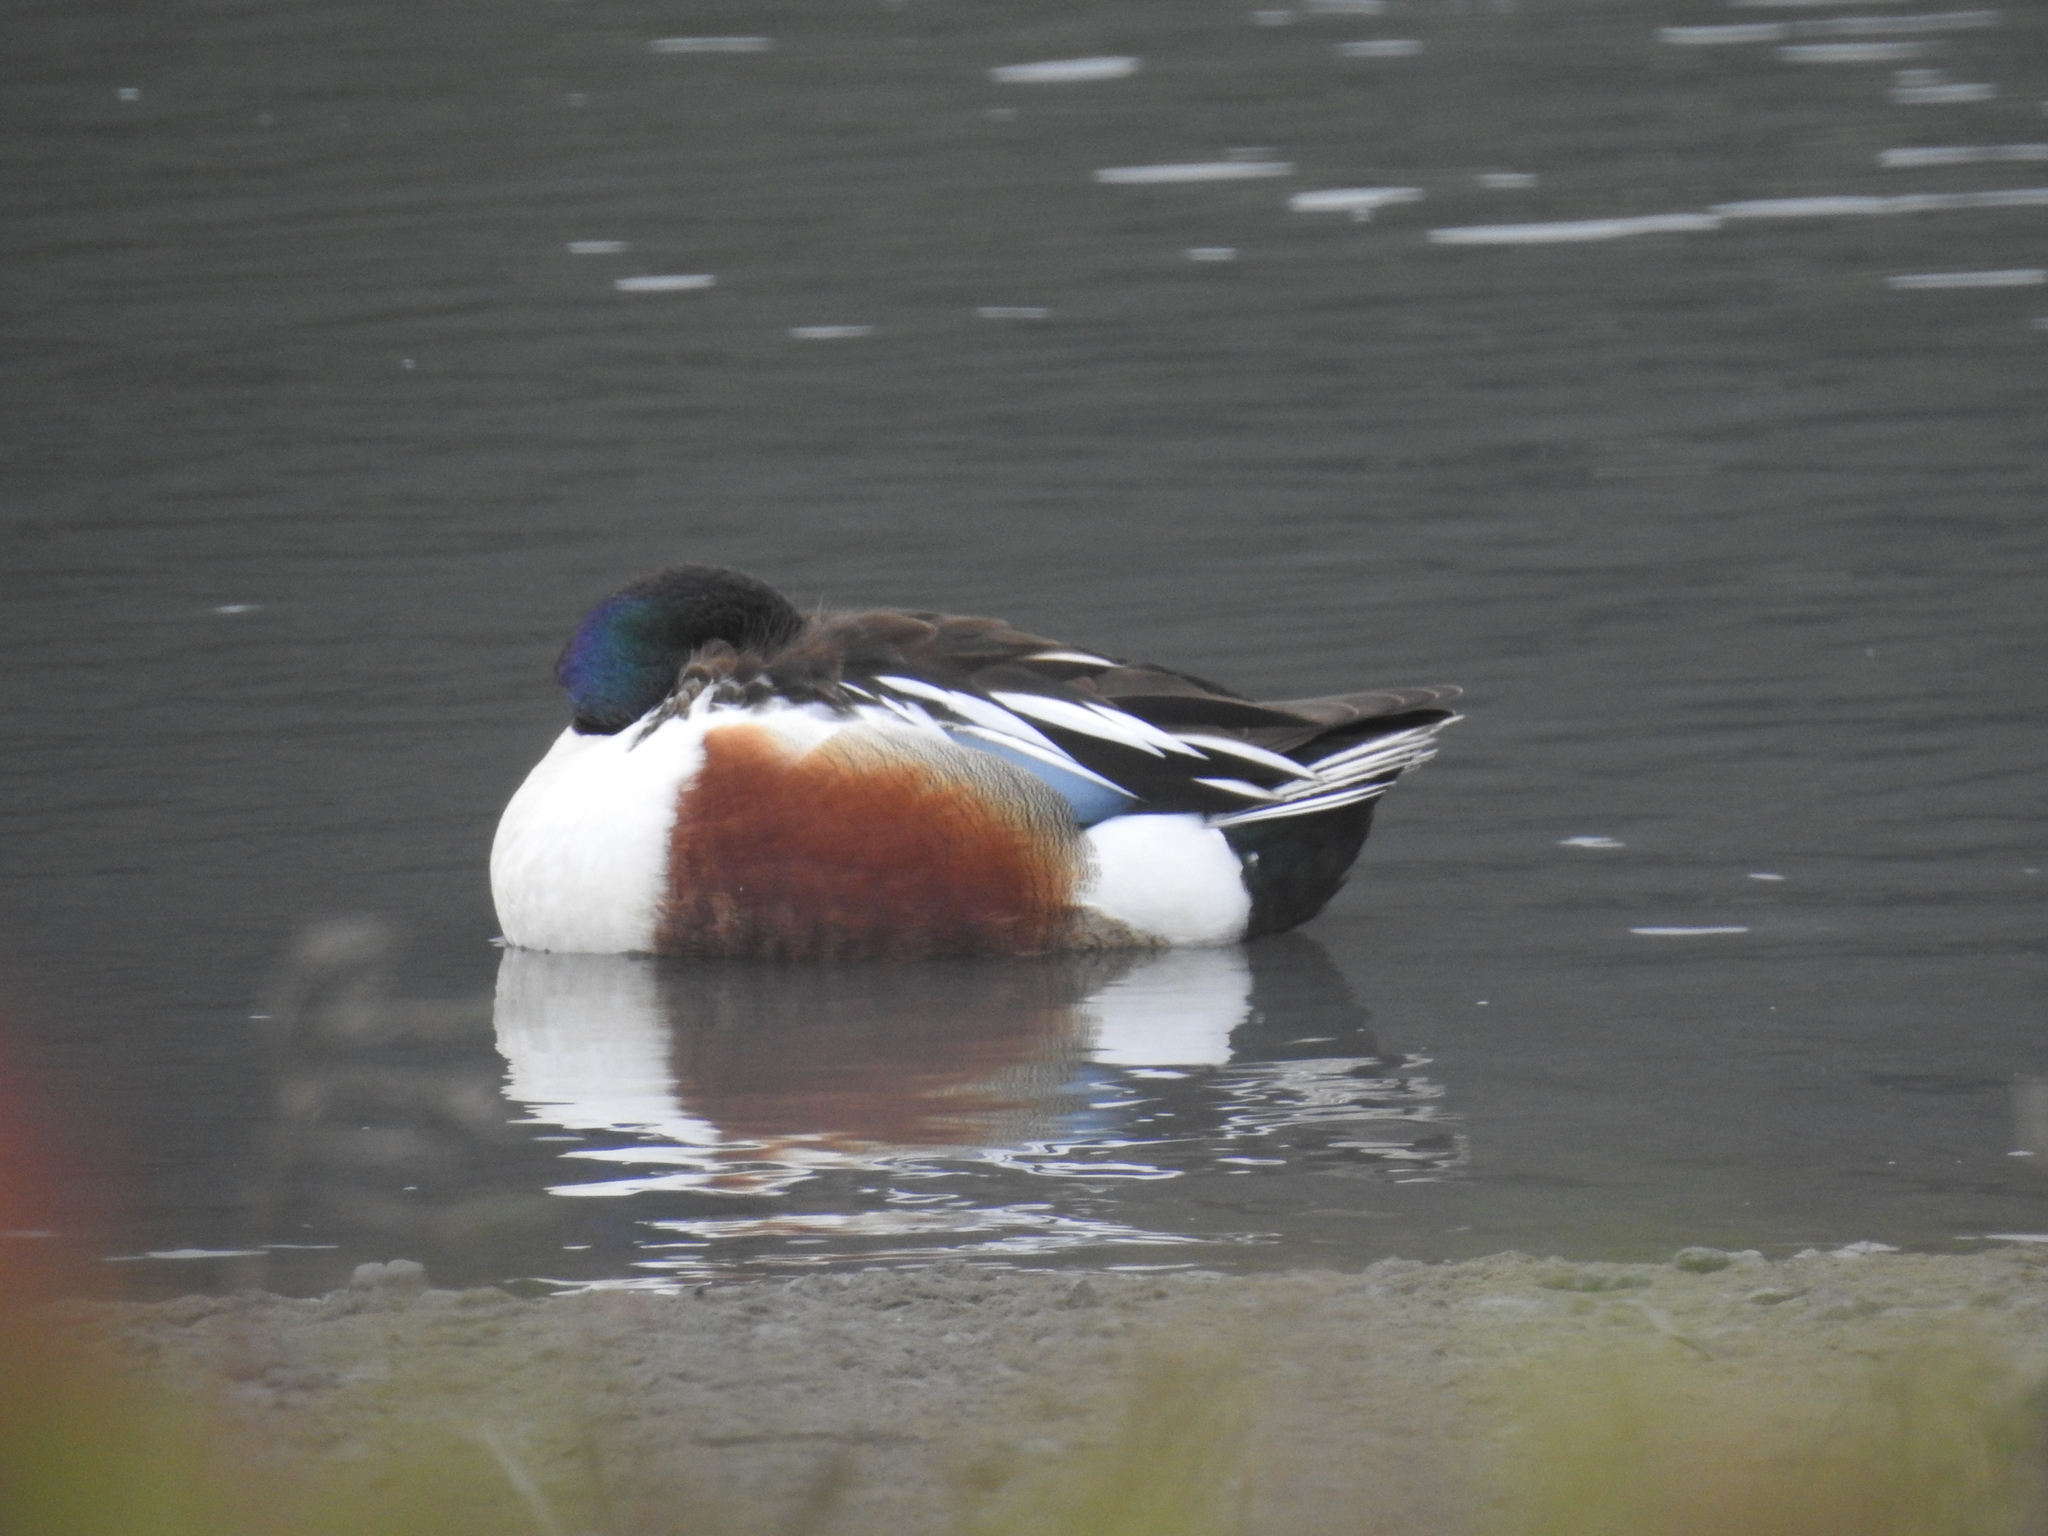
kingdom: Animalia
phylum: Chordata
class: Aves
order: Anseriformes
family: Anatidae
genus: Spatula
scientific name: Spatula clypeata
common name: Northern shoveler
